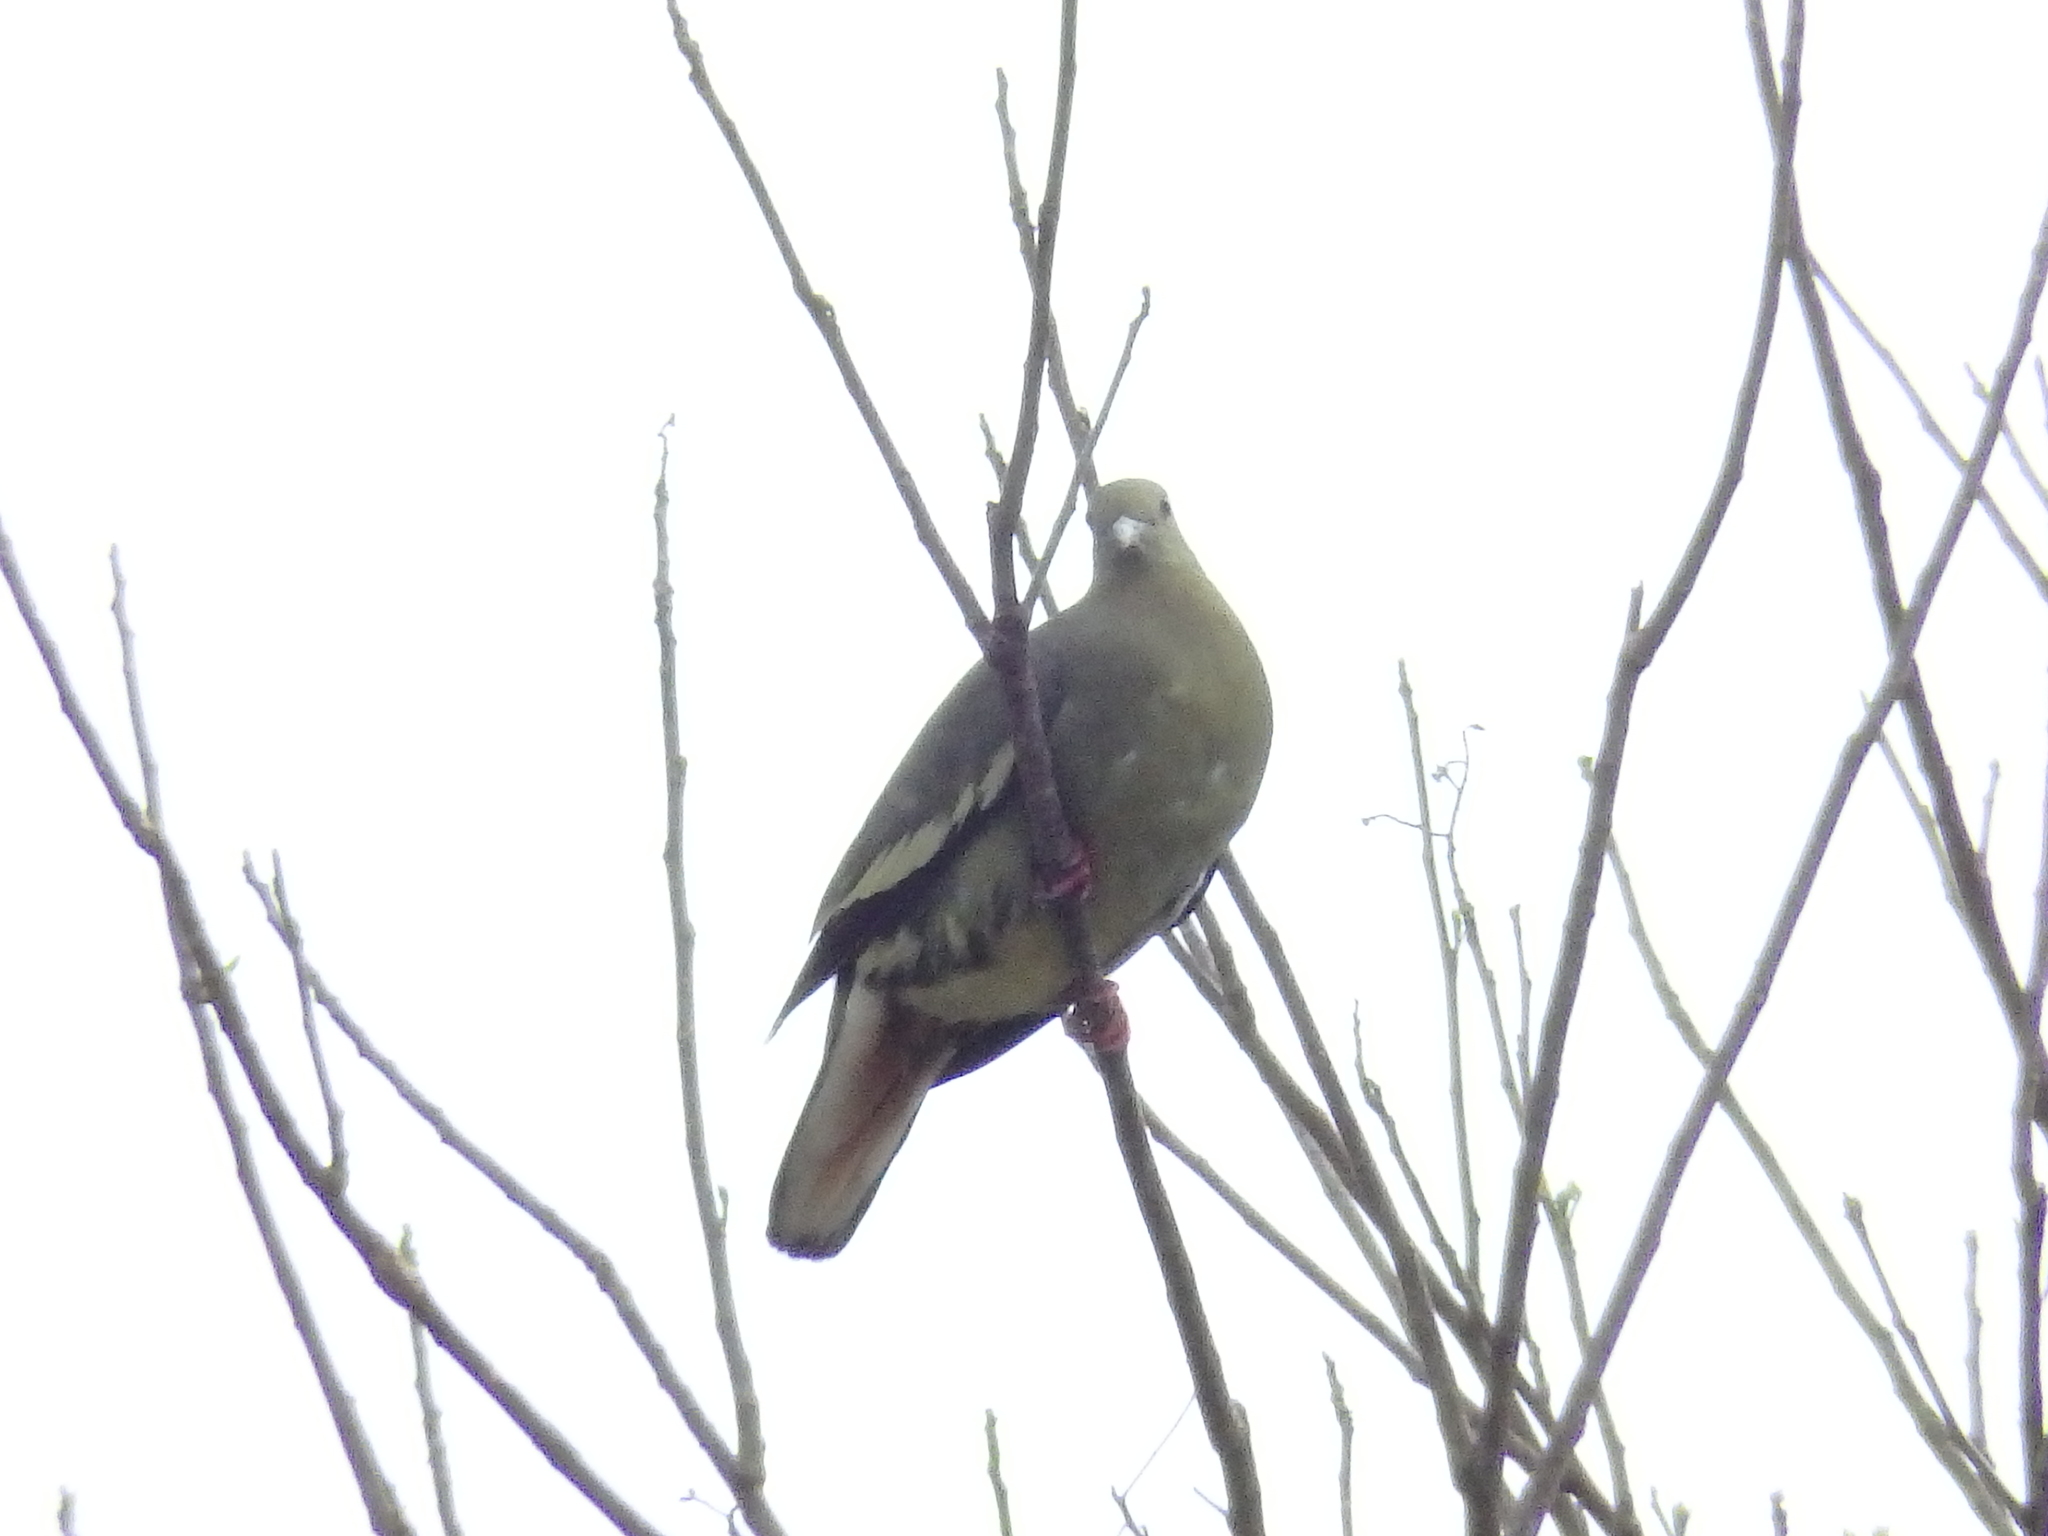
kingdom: Animalia
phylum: Chordata
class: Aves
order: Columbiformes
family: Columbidae
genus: Treron
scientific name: Treron vernans
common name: Pink-necked green pigeon
